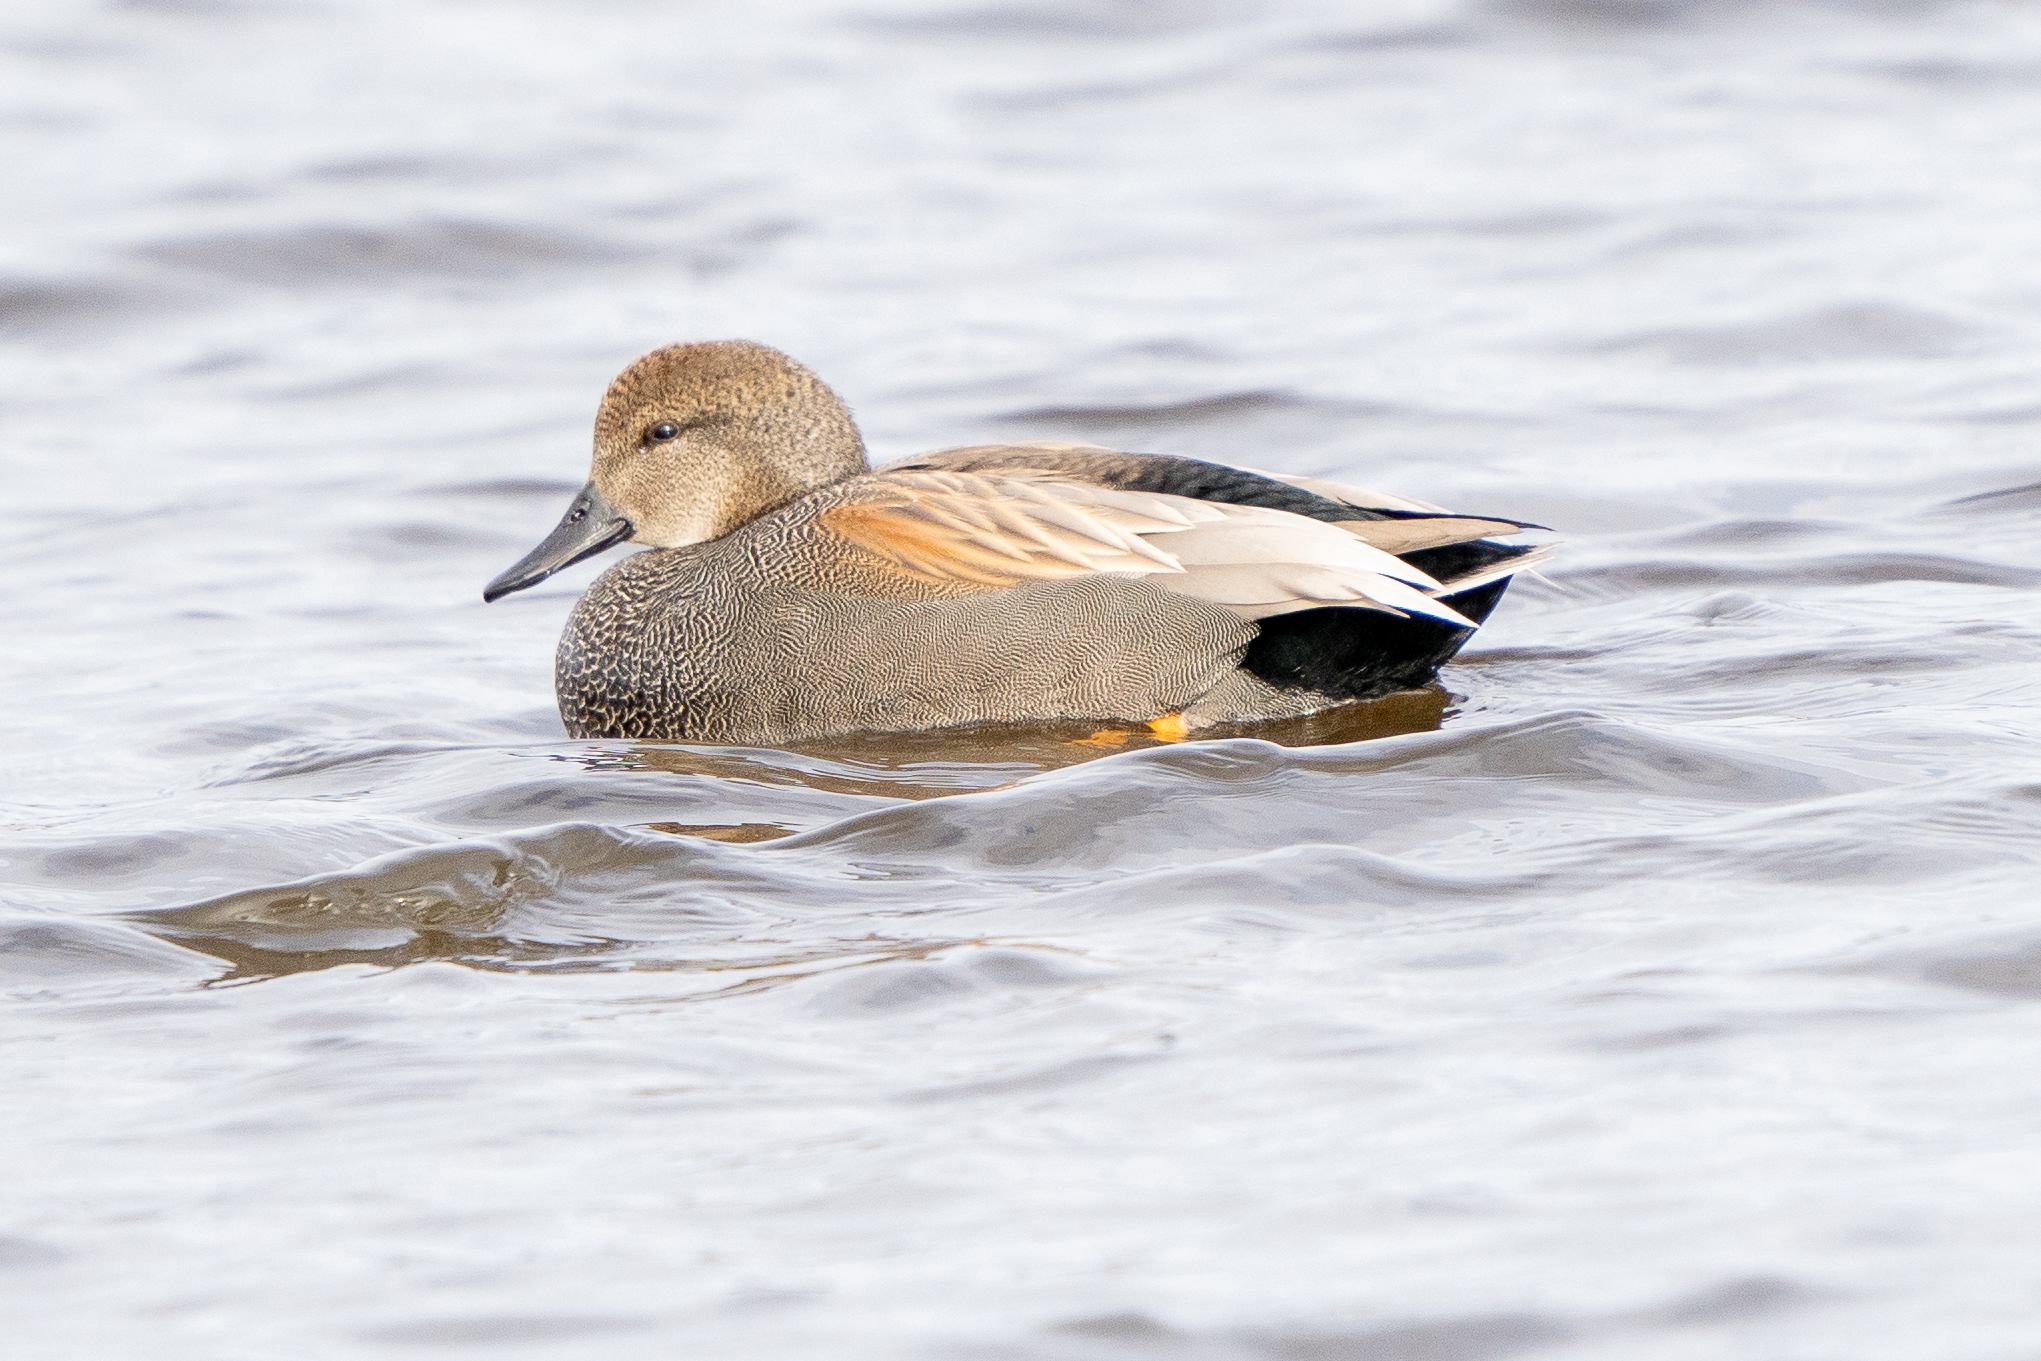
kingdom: Animalia
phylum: Chordata
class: Aves
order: Anseriformes
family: Anatidae
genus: Mareca
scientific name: Mareca strepera
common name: Gadwall
